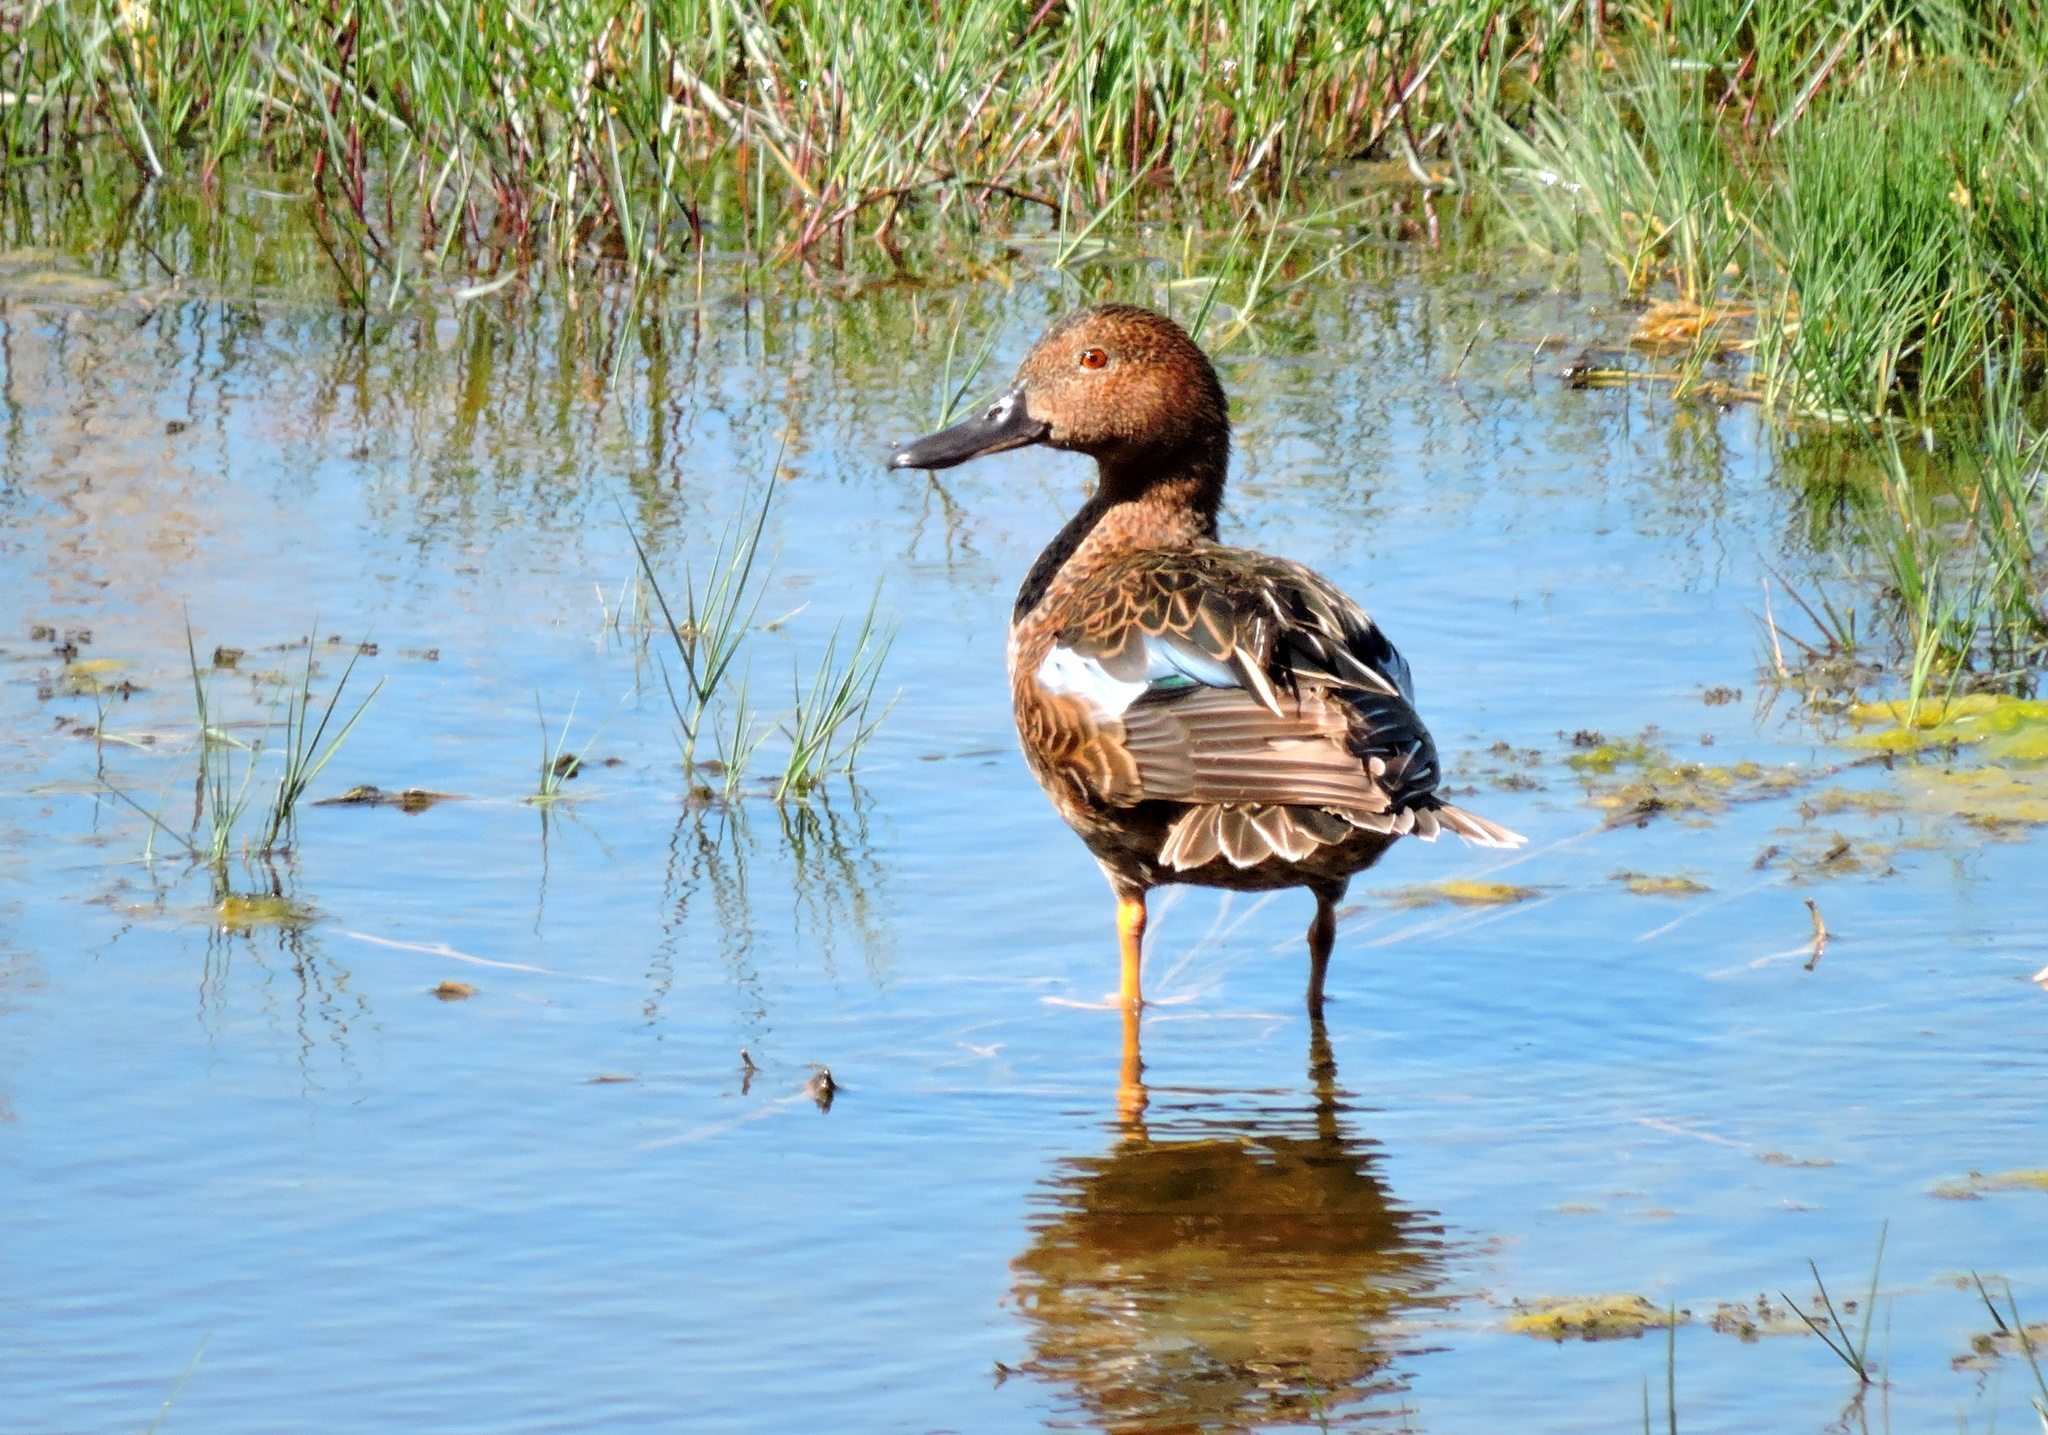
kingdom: Animalia
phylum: Chordata
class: Aves
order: Anseriformes
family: Anatidae
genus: Spatula
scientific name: Spatula cyanoptera
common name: Cinnamon teal
